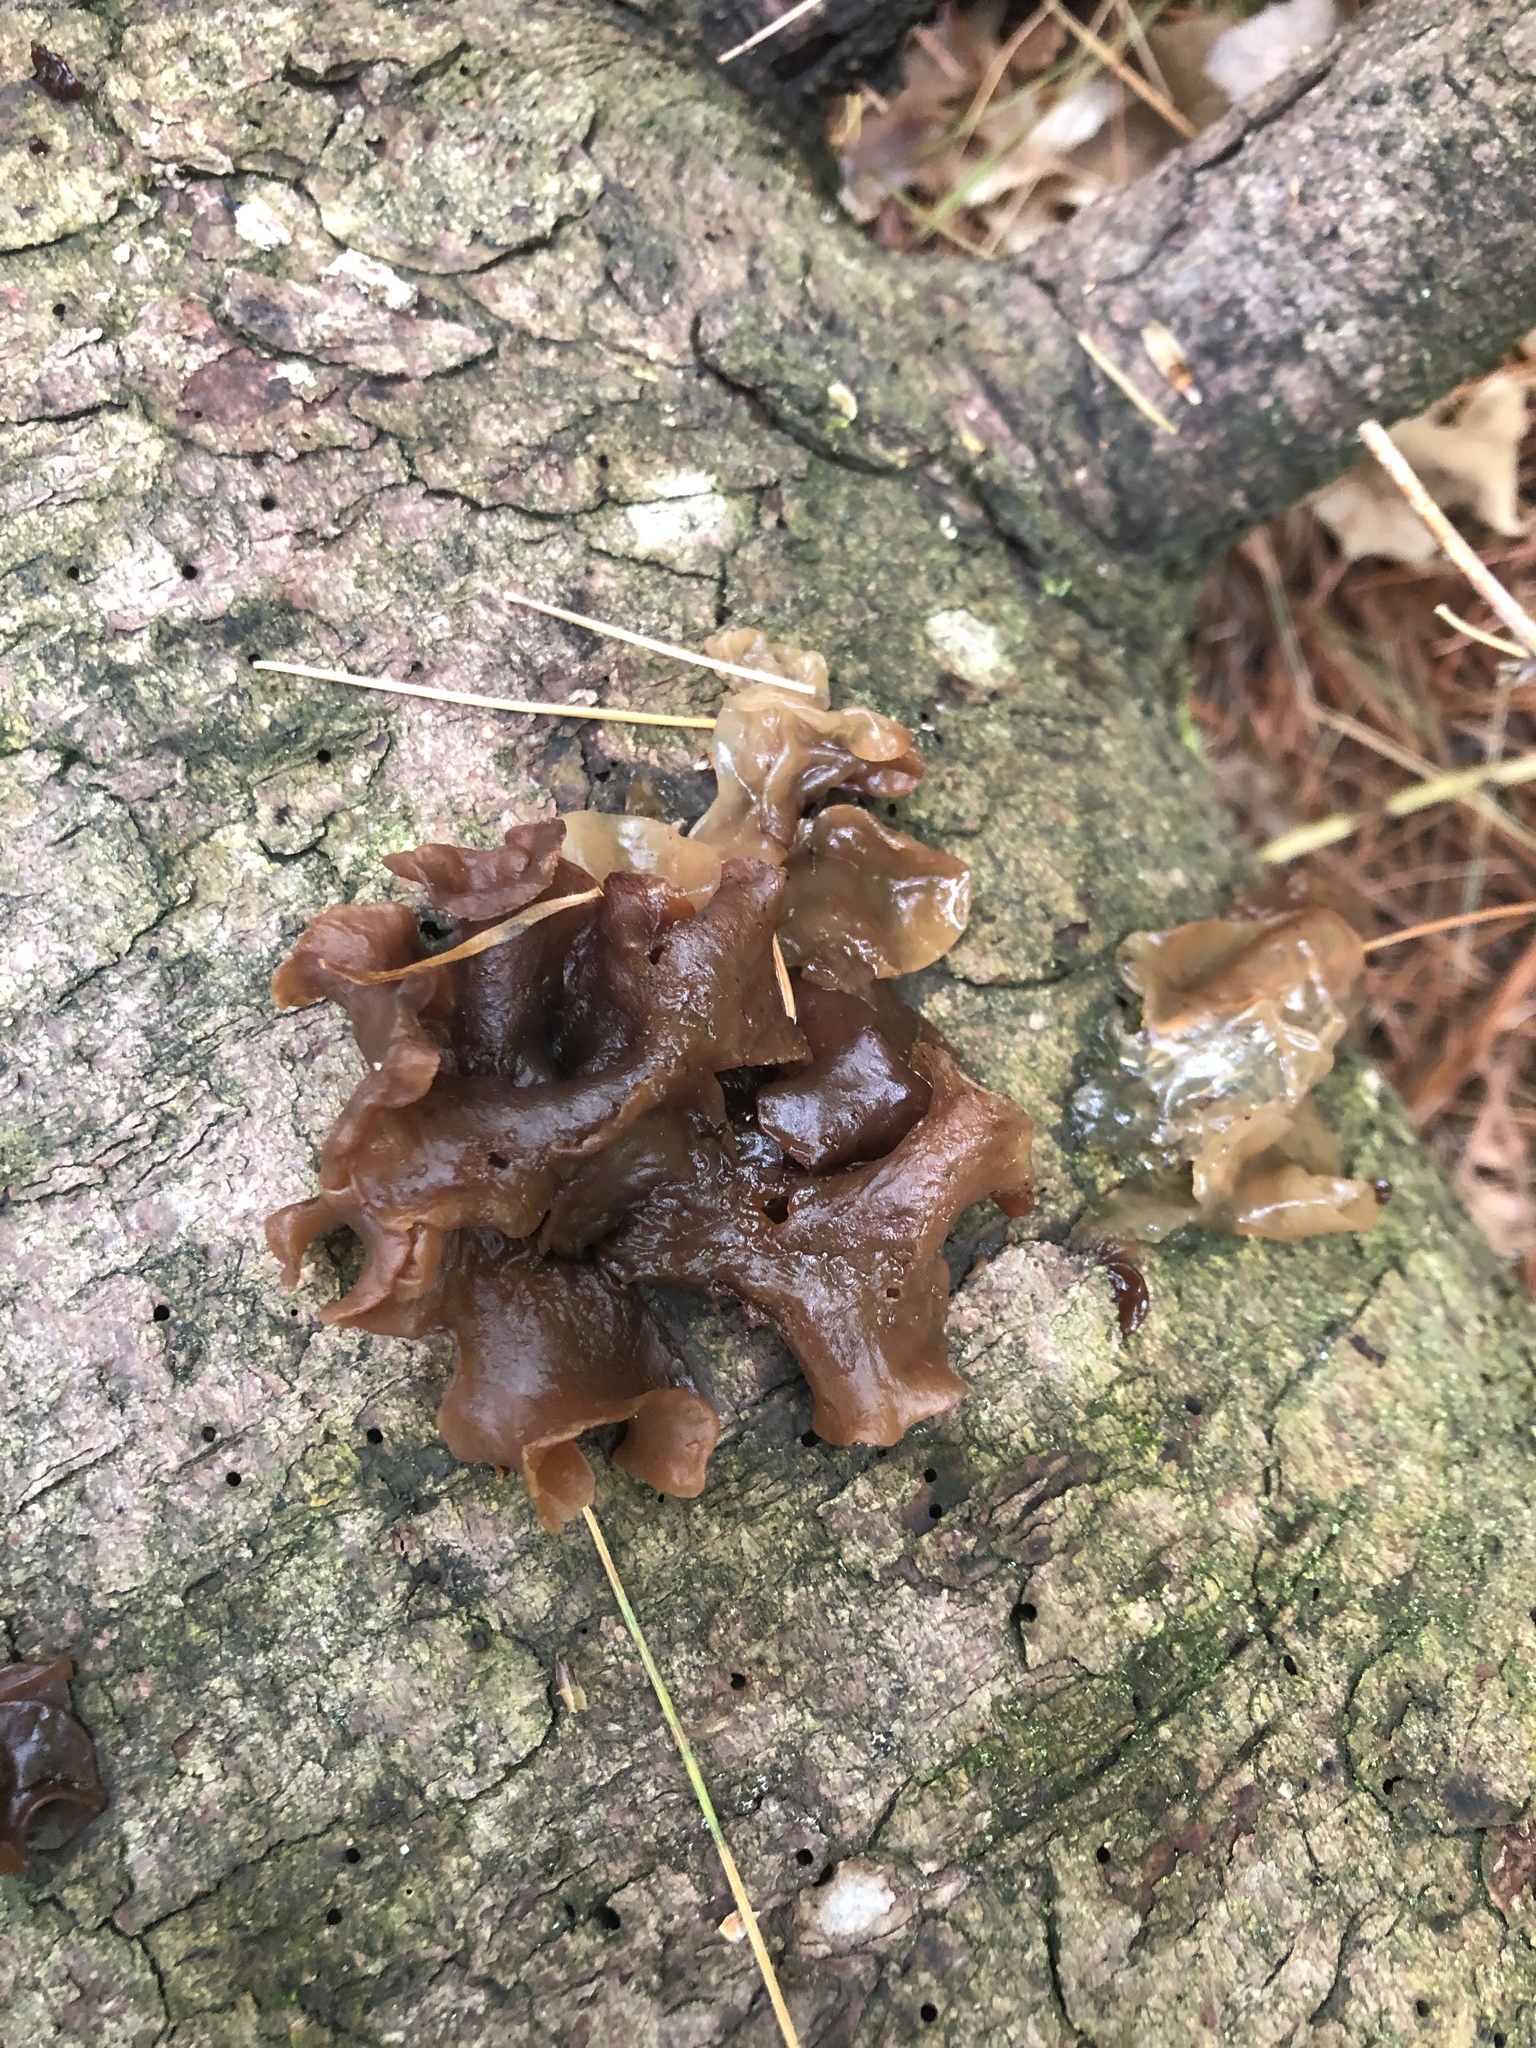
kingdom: Fungi
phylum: Basidiomycota
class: Tremellomycetes
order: Tremellales
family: Tremellaceae
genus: Phaeotremella
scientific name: Phaeotremella foliacea
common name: Leafy brain
